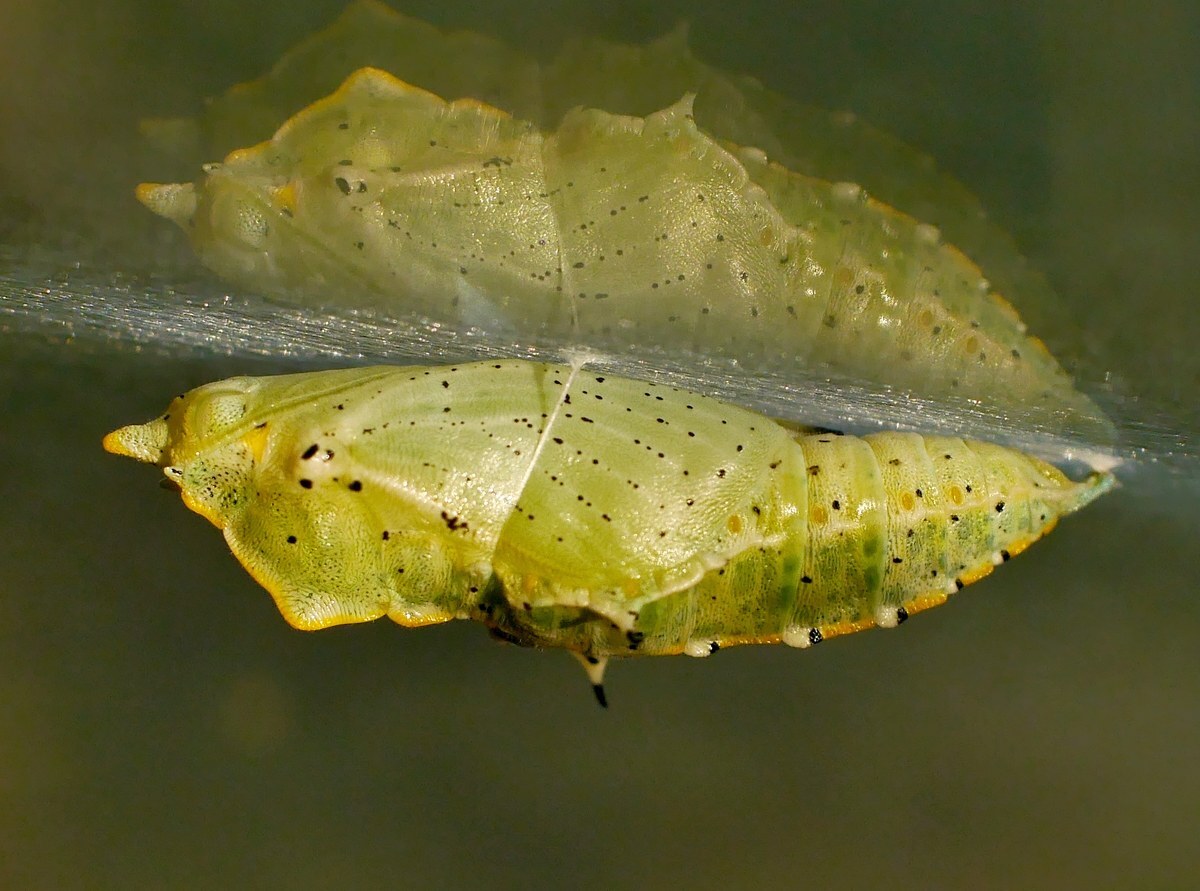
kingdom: Animalia
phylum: Arthropoda
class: Insecta
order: Lepidoptera
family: Pieridae
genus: Pieris
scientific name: Pieris brassicae
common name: Large white
